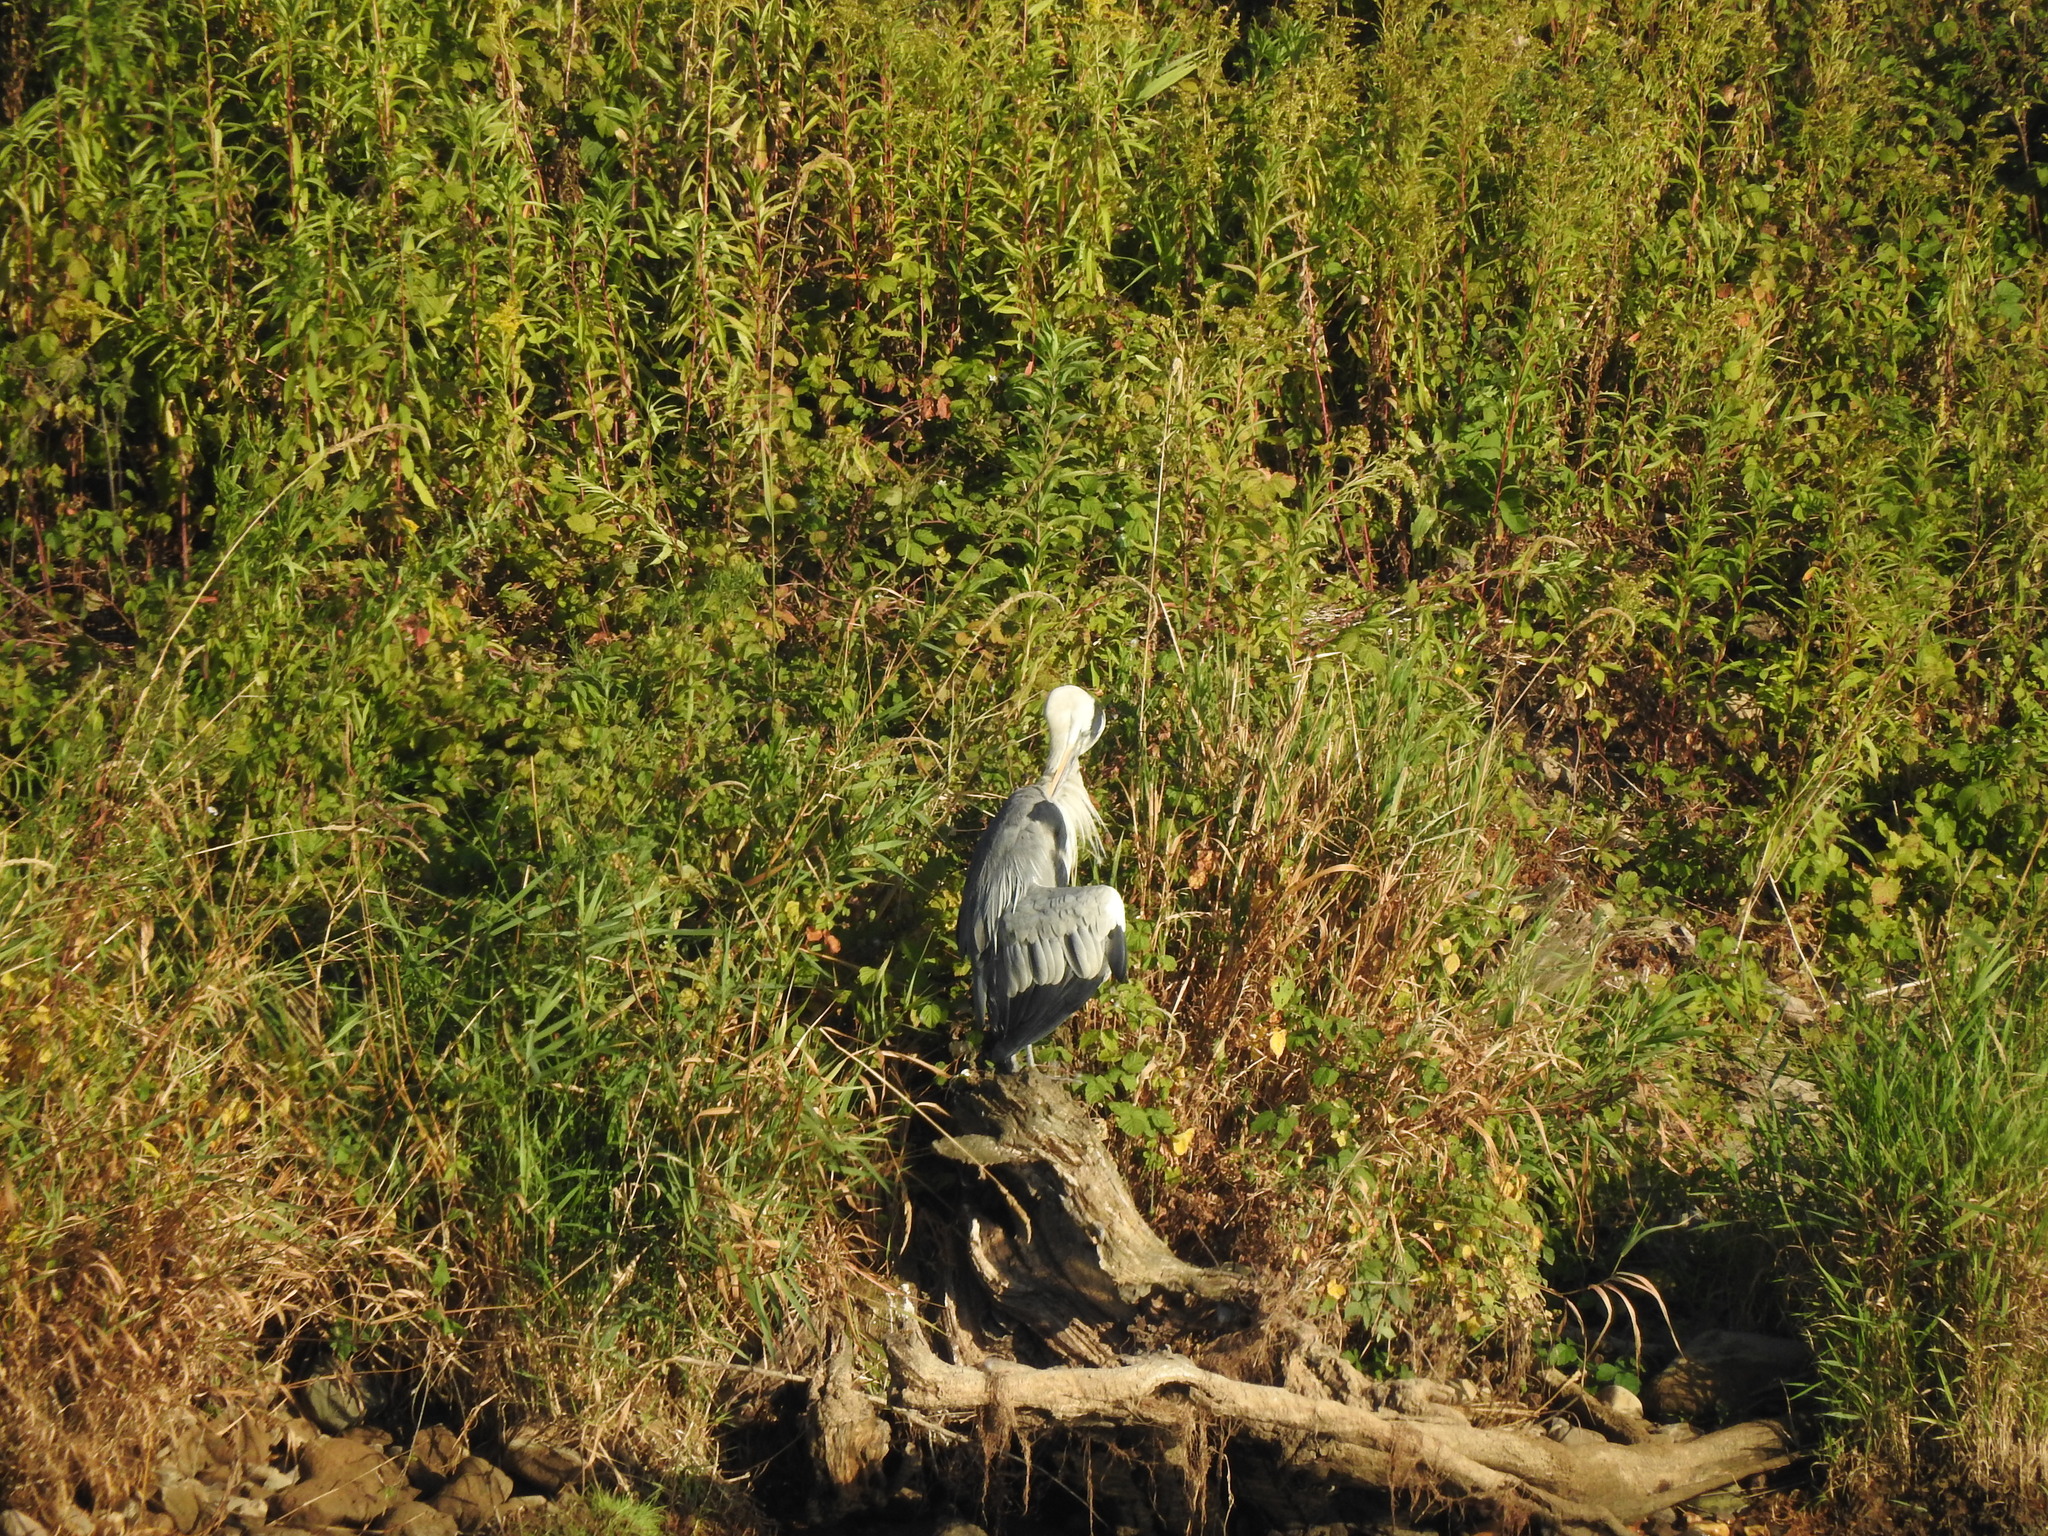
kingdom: Animalia
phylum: Chordata
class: Aves
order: Pelecaniformes
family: Ardeidae
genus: Ardea
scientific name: Ardea cinerea
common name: Grey heron
